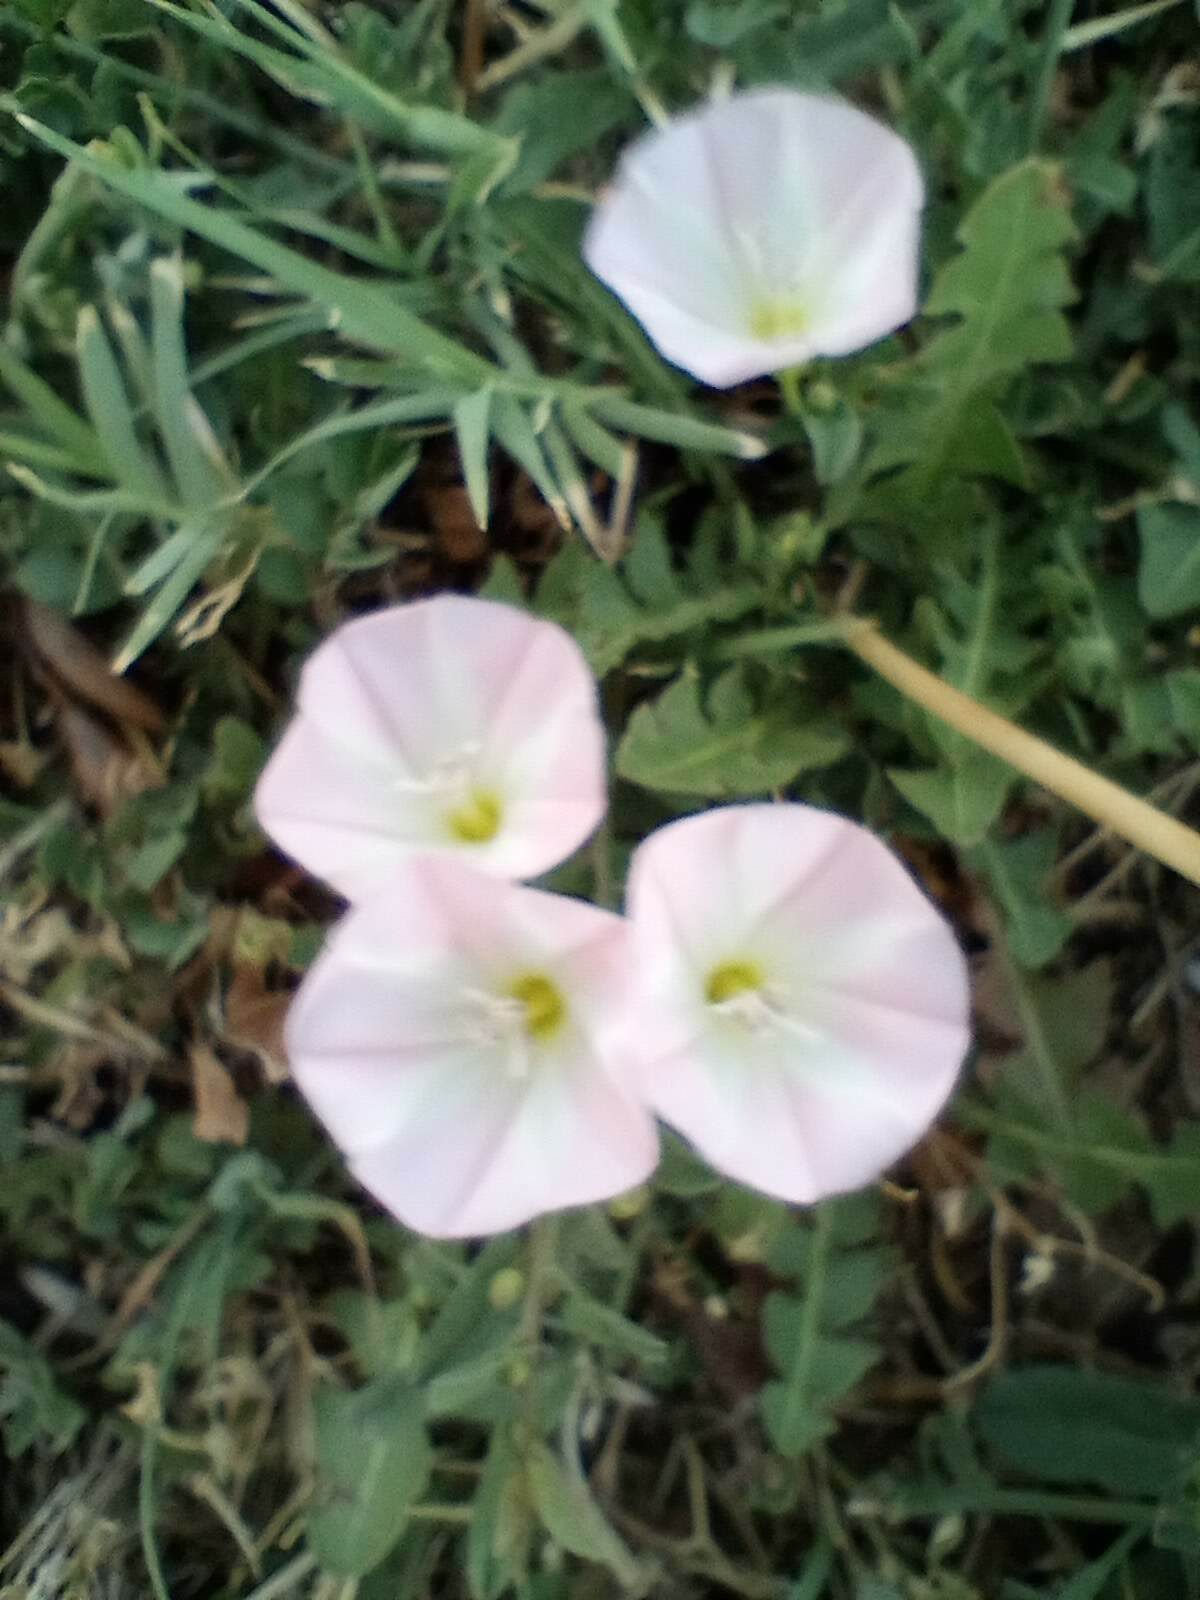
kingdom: Plantae
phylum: Tracheophyta
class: Magnoliopsida
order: Solanales
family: Convolvulaceae
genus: Convolvulus
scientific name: Convolvulus arvensis
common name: Field bindweed
